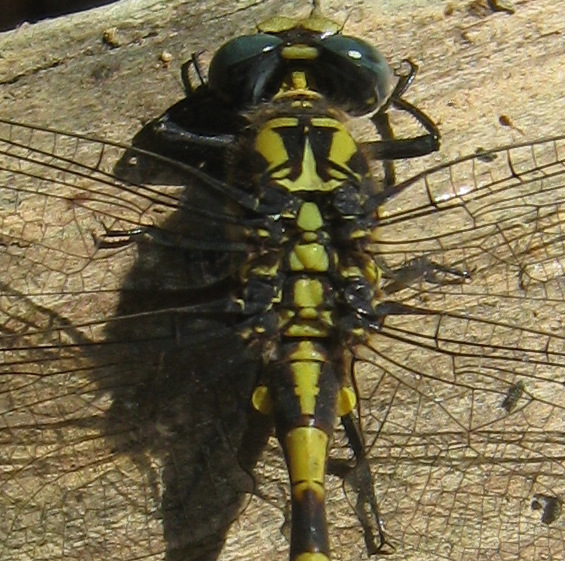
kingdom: Animalia
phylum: Arthropoda
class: Insecta
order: Odonata
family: Gomphidae
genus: Onychogomphus
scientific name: Onychogomphus uncatus
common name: Large pincertail
